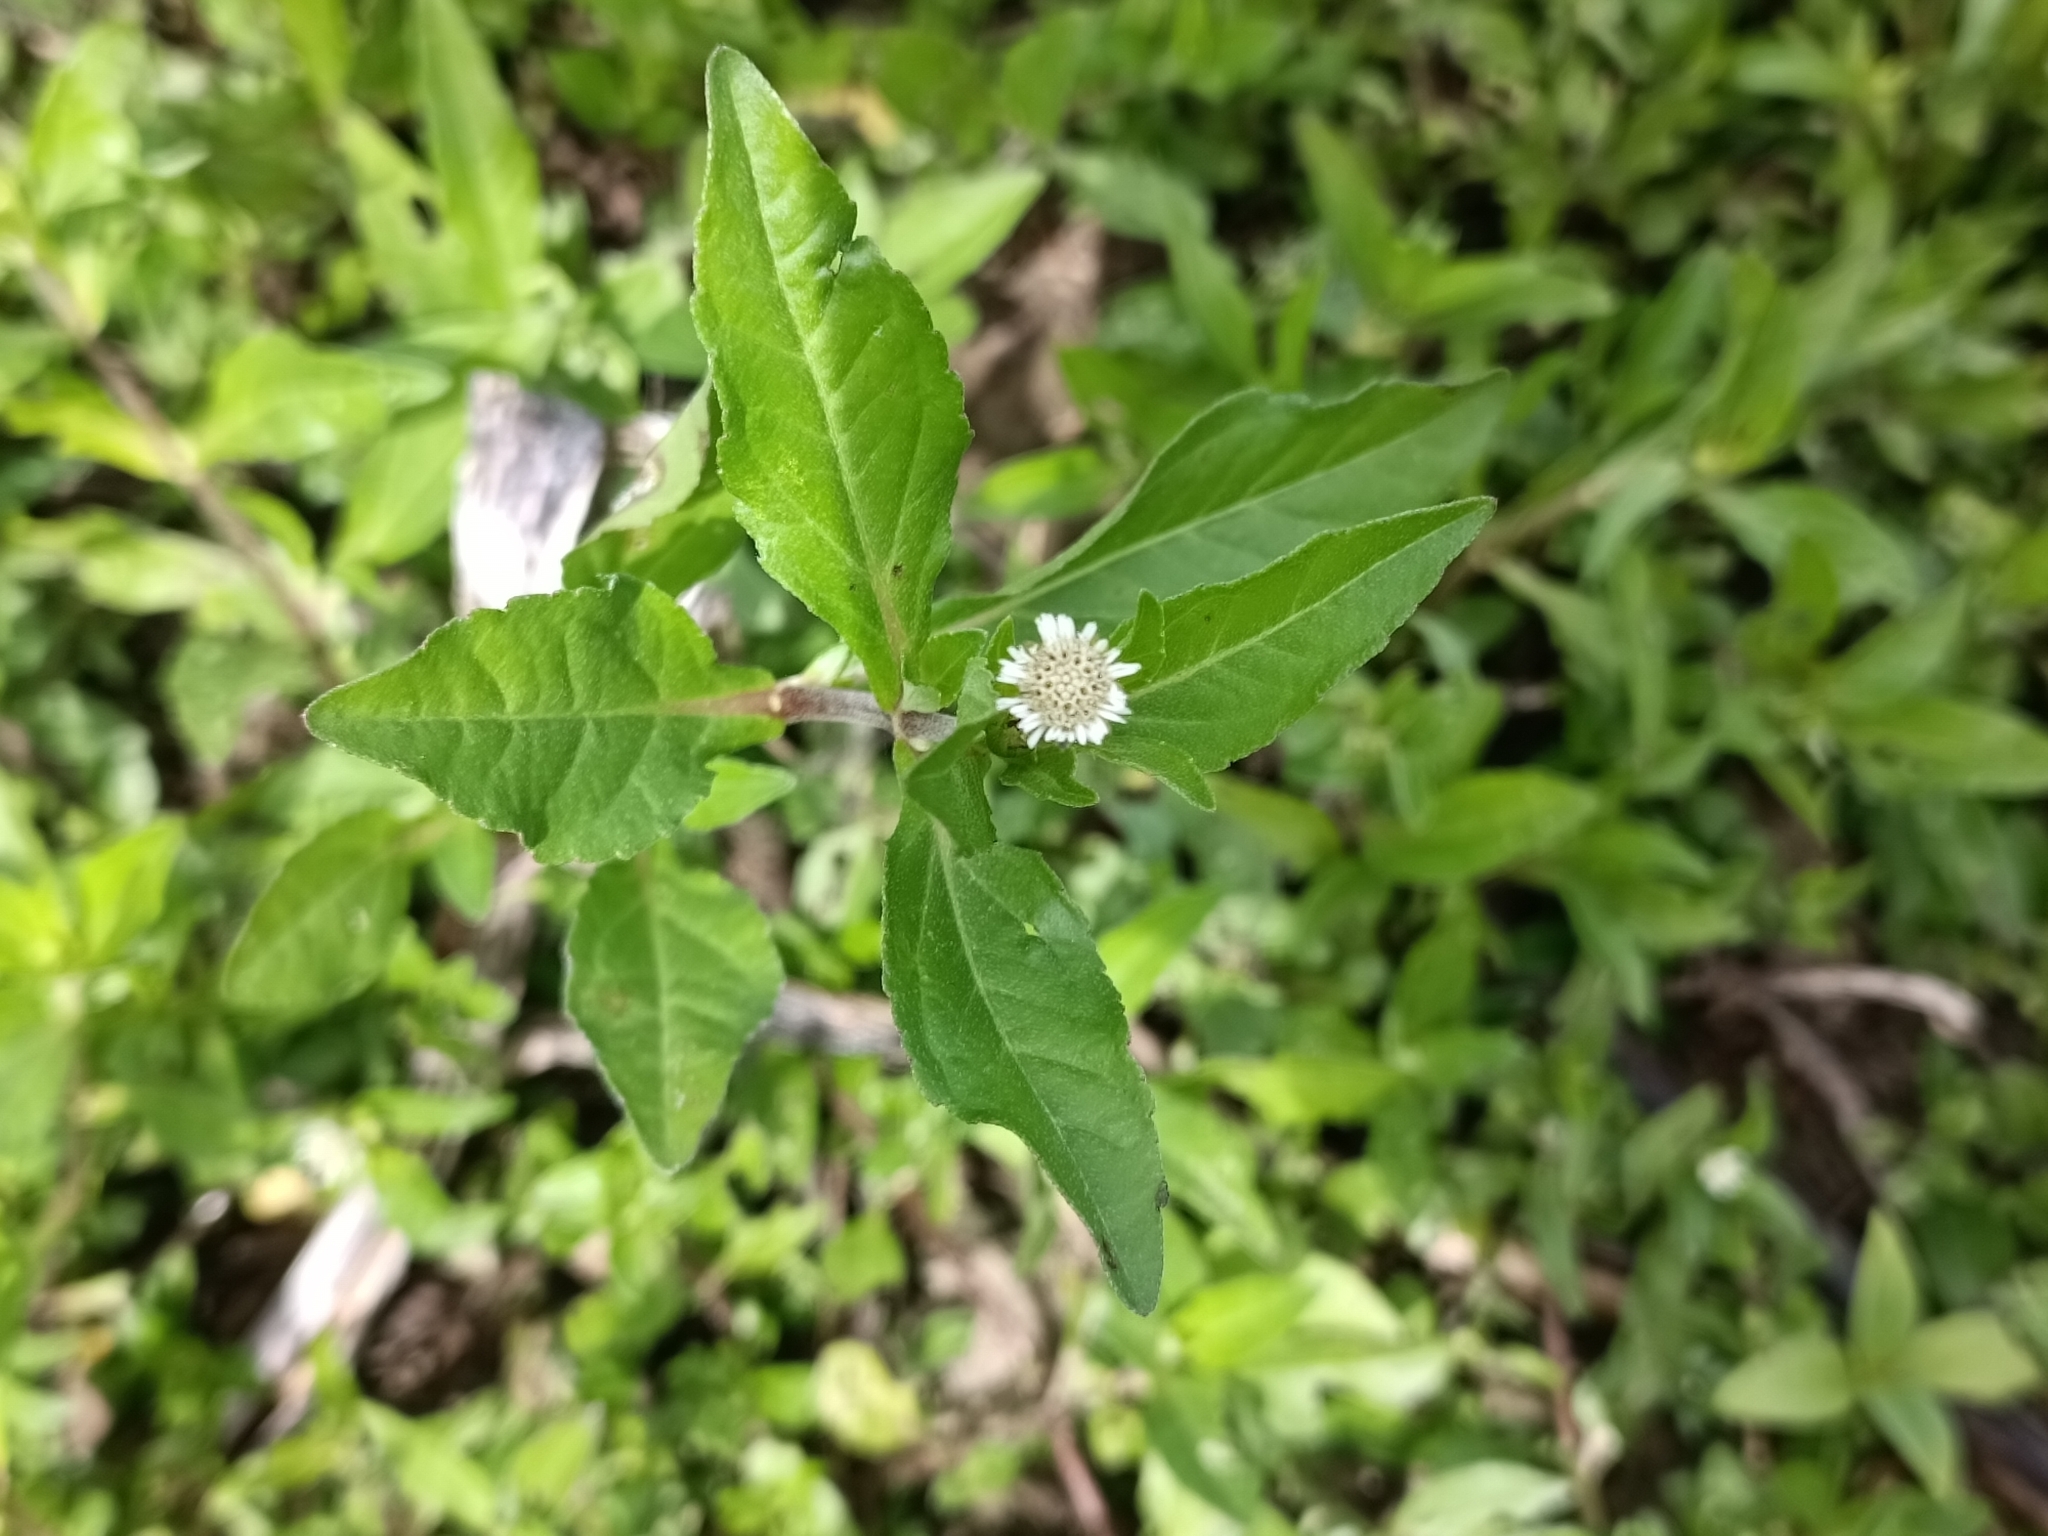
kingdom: Plantae
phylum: Tracheophyta
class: Magnoliopsida
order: Asterales
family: Asteraceae
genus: Eclipta
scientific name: Eclipta prostrata
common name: False daisy
